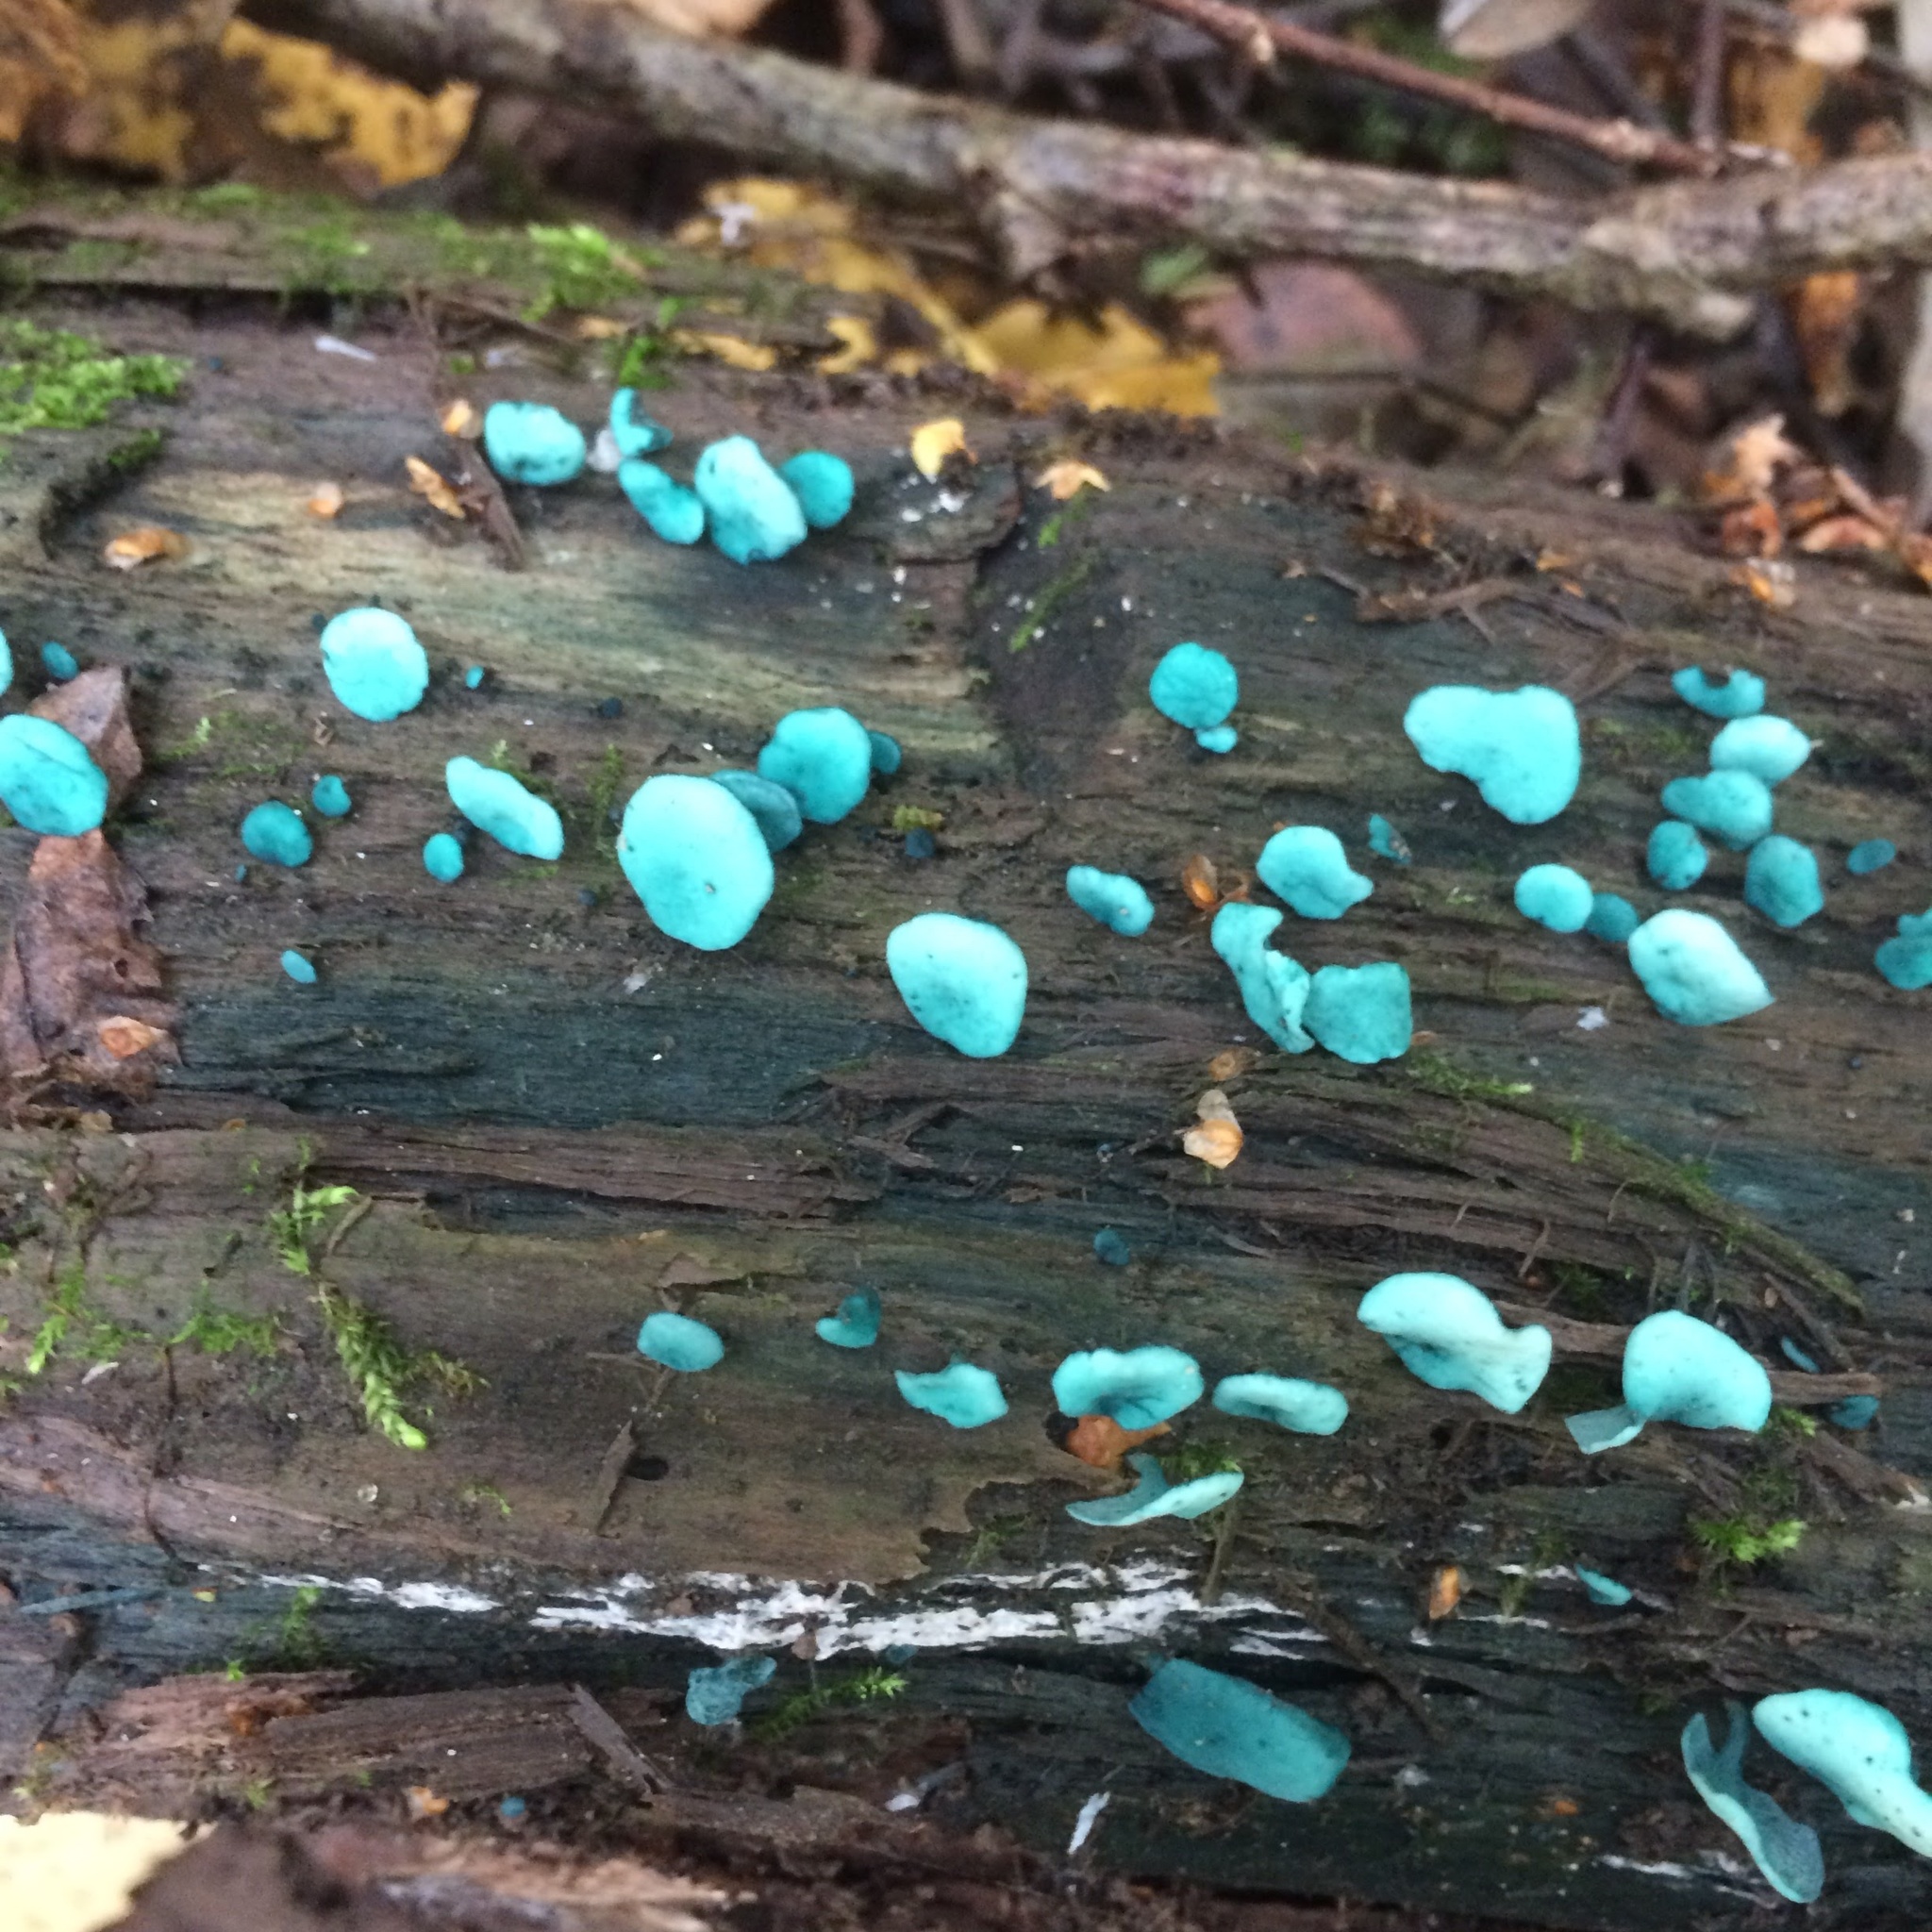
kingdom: Fungi
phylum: Ascomycota
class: Leotiomycetes
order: Helotiales
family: Chlorociboriaceae
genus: Chlorociboria
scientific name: Chlorociboria aeruginascens
